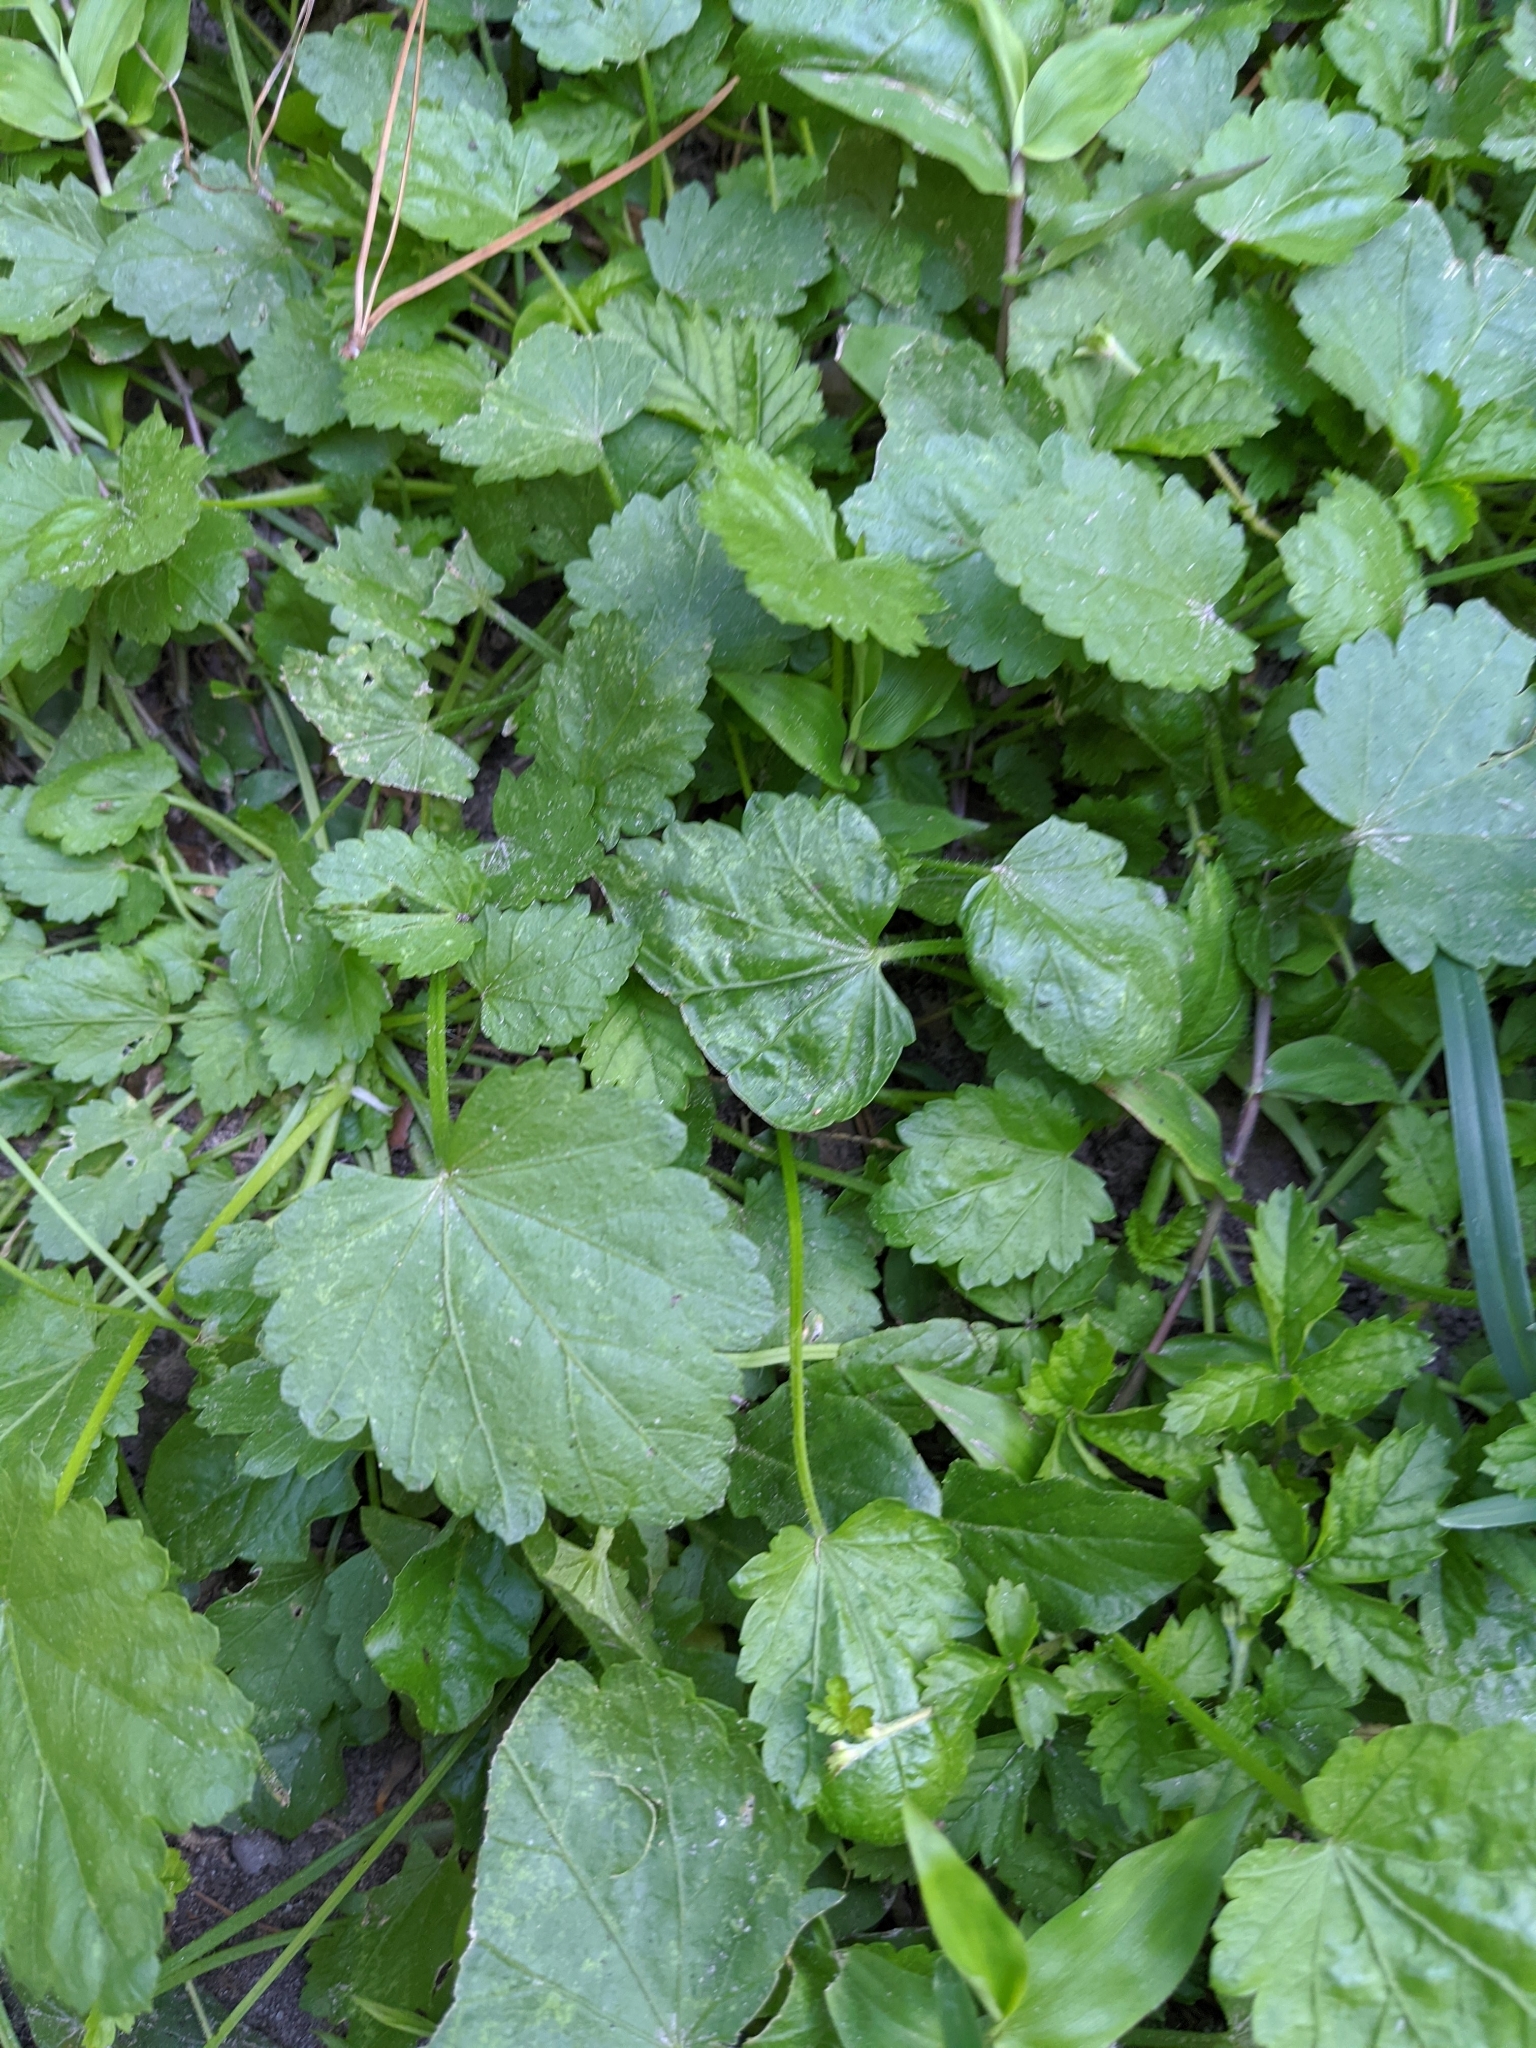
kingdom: Plantae
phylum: Tracheophyta
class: Magnoliopsida
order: Malvales
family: Malvaceae
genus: Modiola
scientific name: Modiola caroliniana
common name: Carolina bristlemallow
